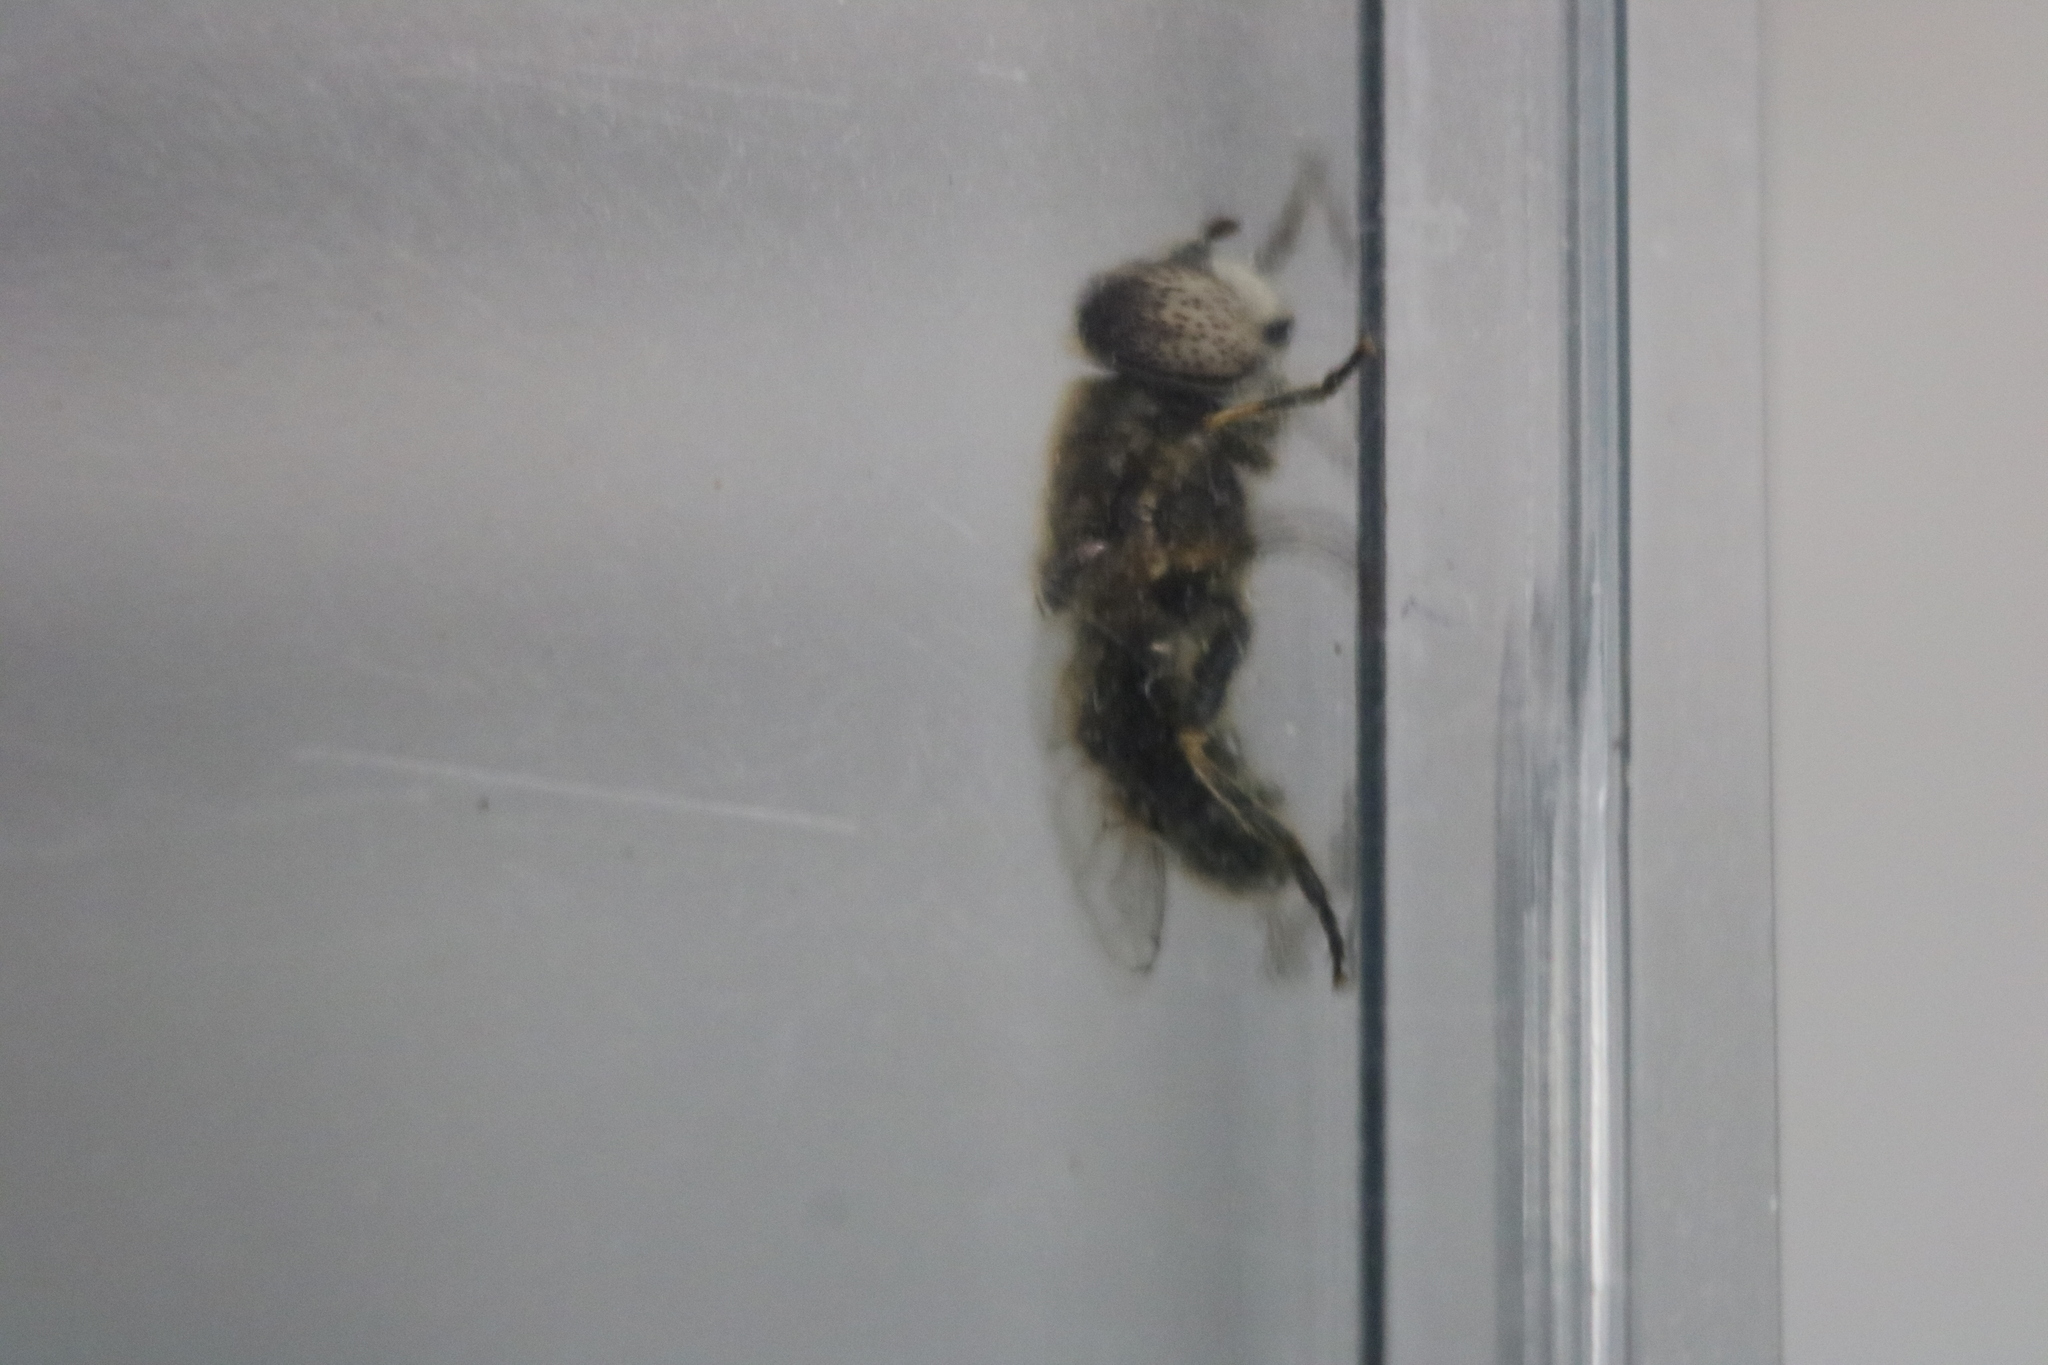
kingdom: Animalia
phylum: Arthropoda
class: Insecta
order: Diptera
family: Syrphidae
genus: Eristalinus
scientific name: Eristalinus aeneus
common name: Syrphid fly
